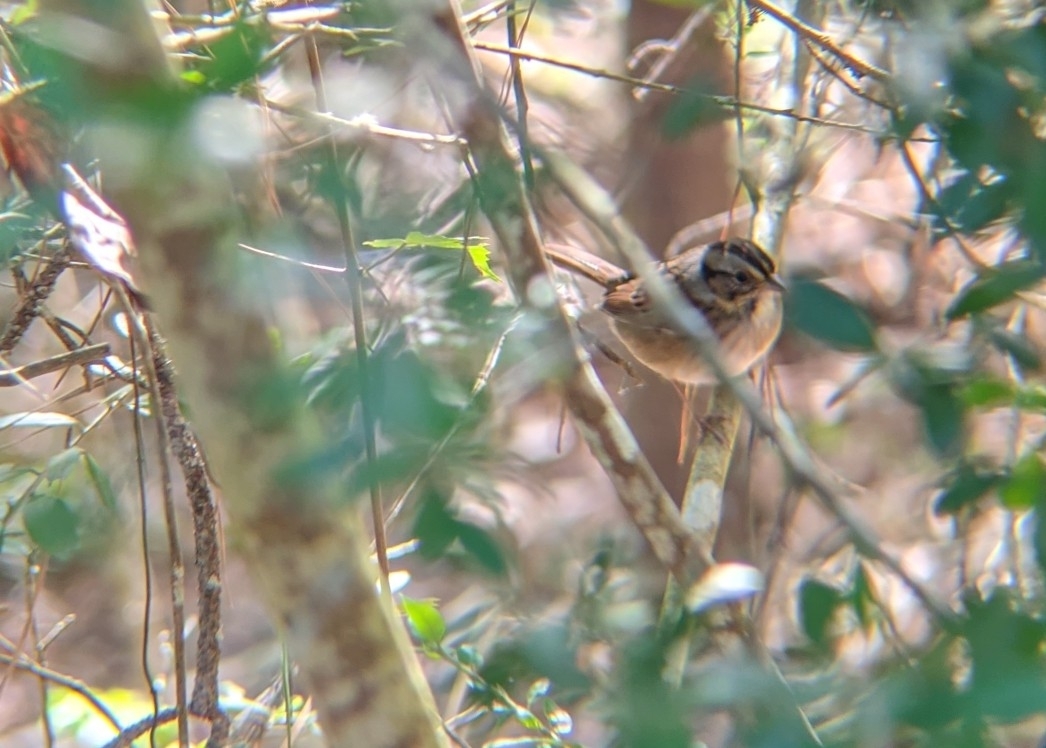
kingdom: Animalia
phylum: Chordata
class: Aves
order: Passeriformes
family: Passerellidae
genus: Melospiza
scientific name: Melospiza georgiana
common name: Swamp sparrow
